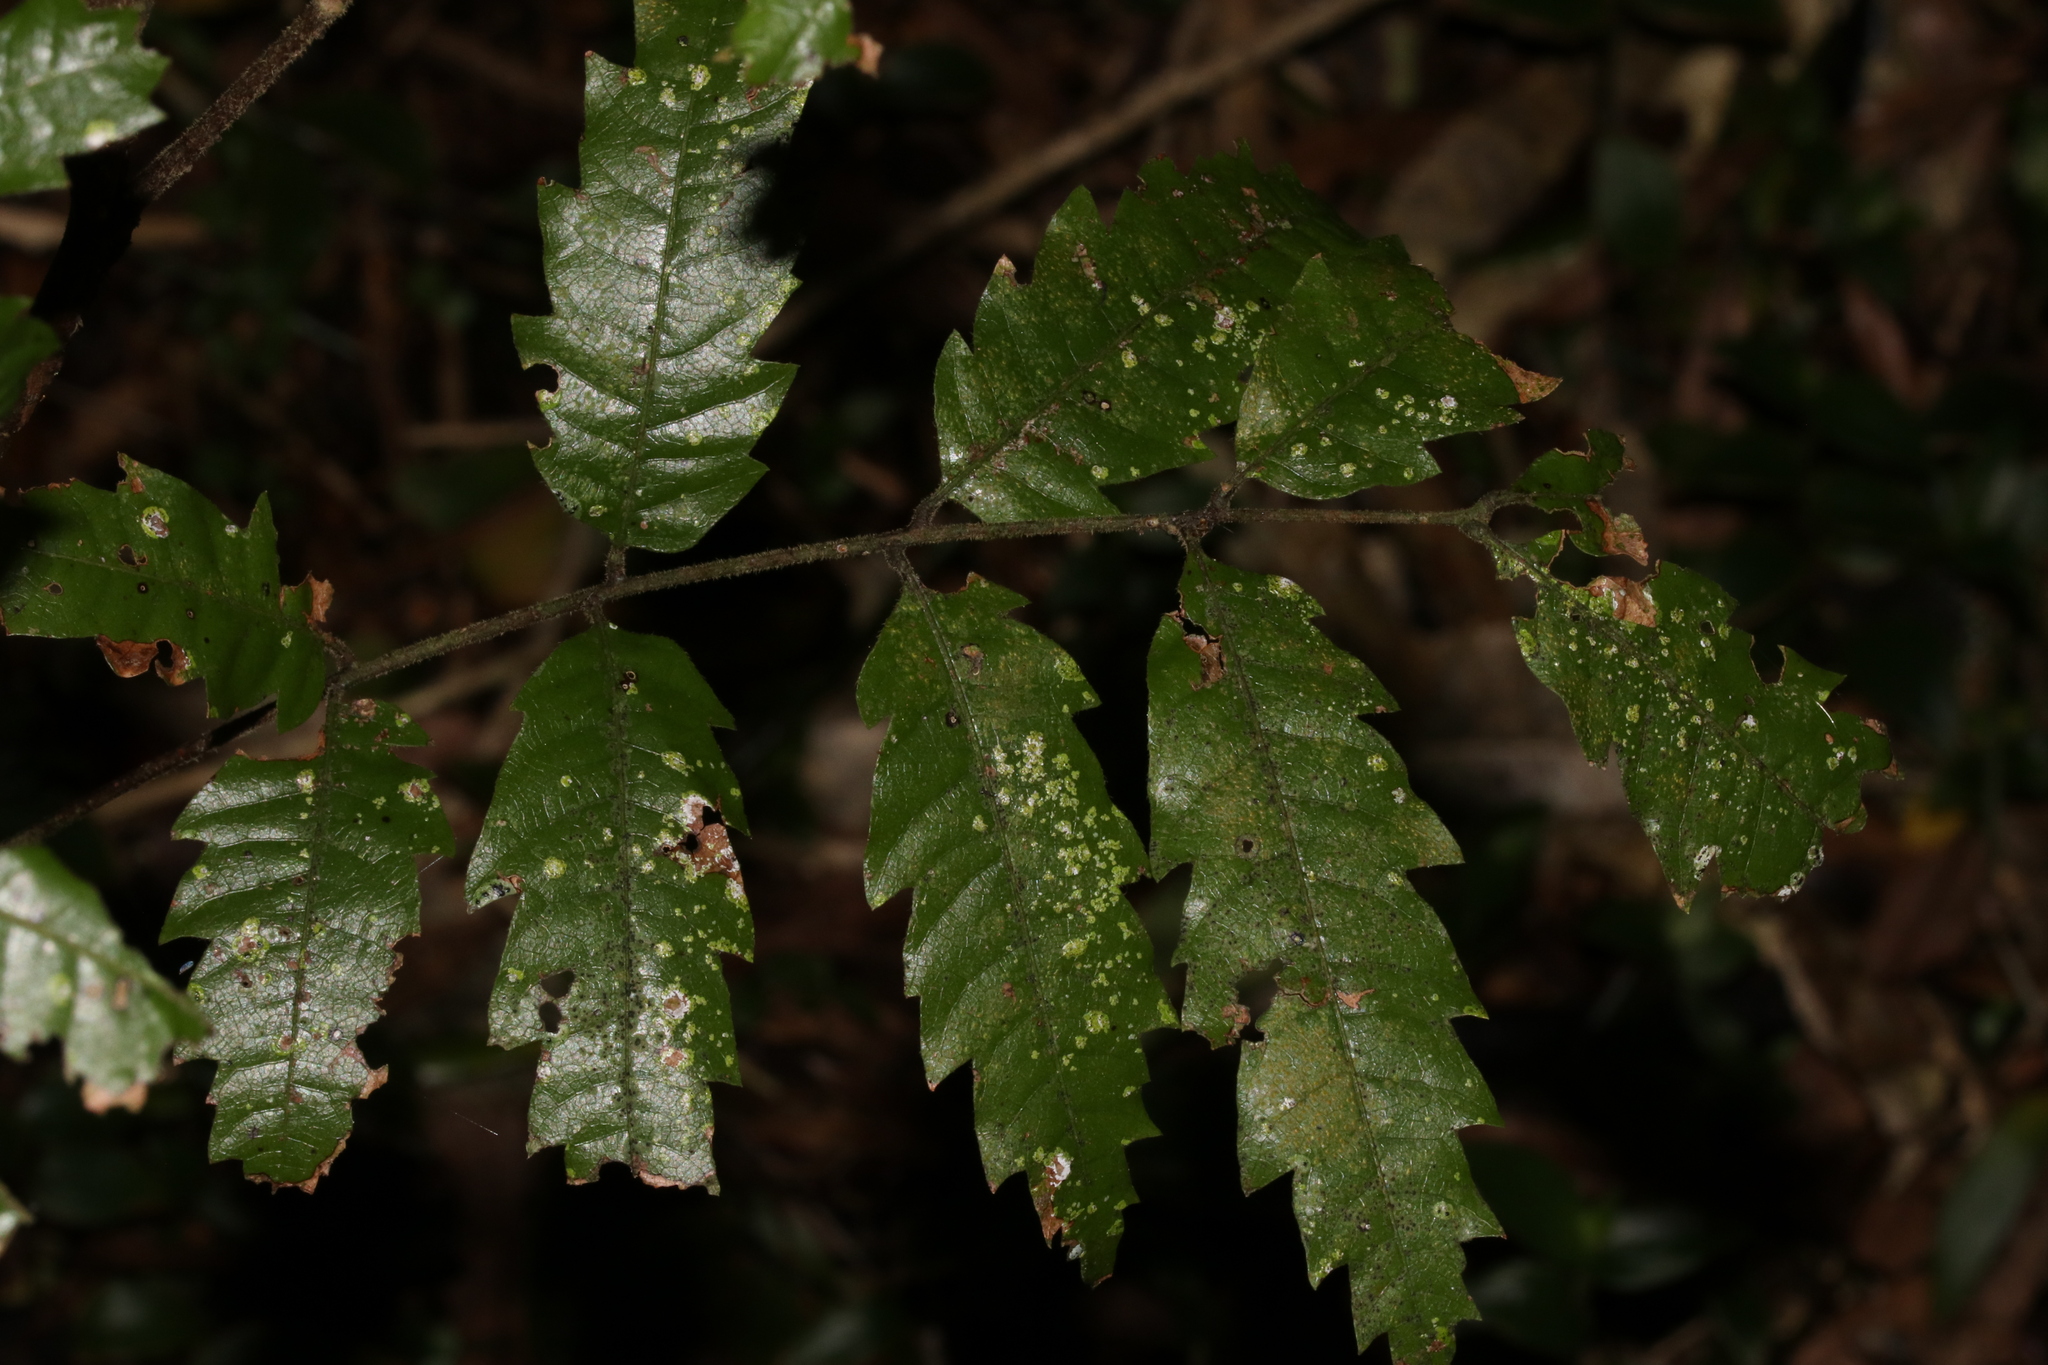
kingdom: Plantae
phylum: Tracheophyta
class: Magnoliopsida
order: Sapindales
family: Sapindaceae
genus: Alectryon
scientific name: Alectryon excelsus
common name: Three kings titoki
